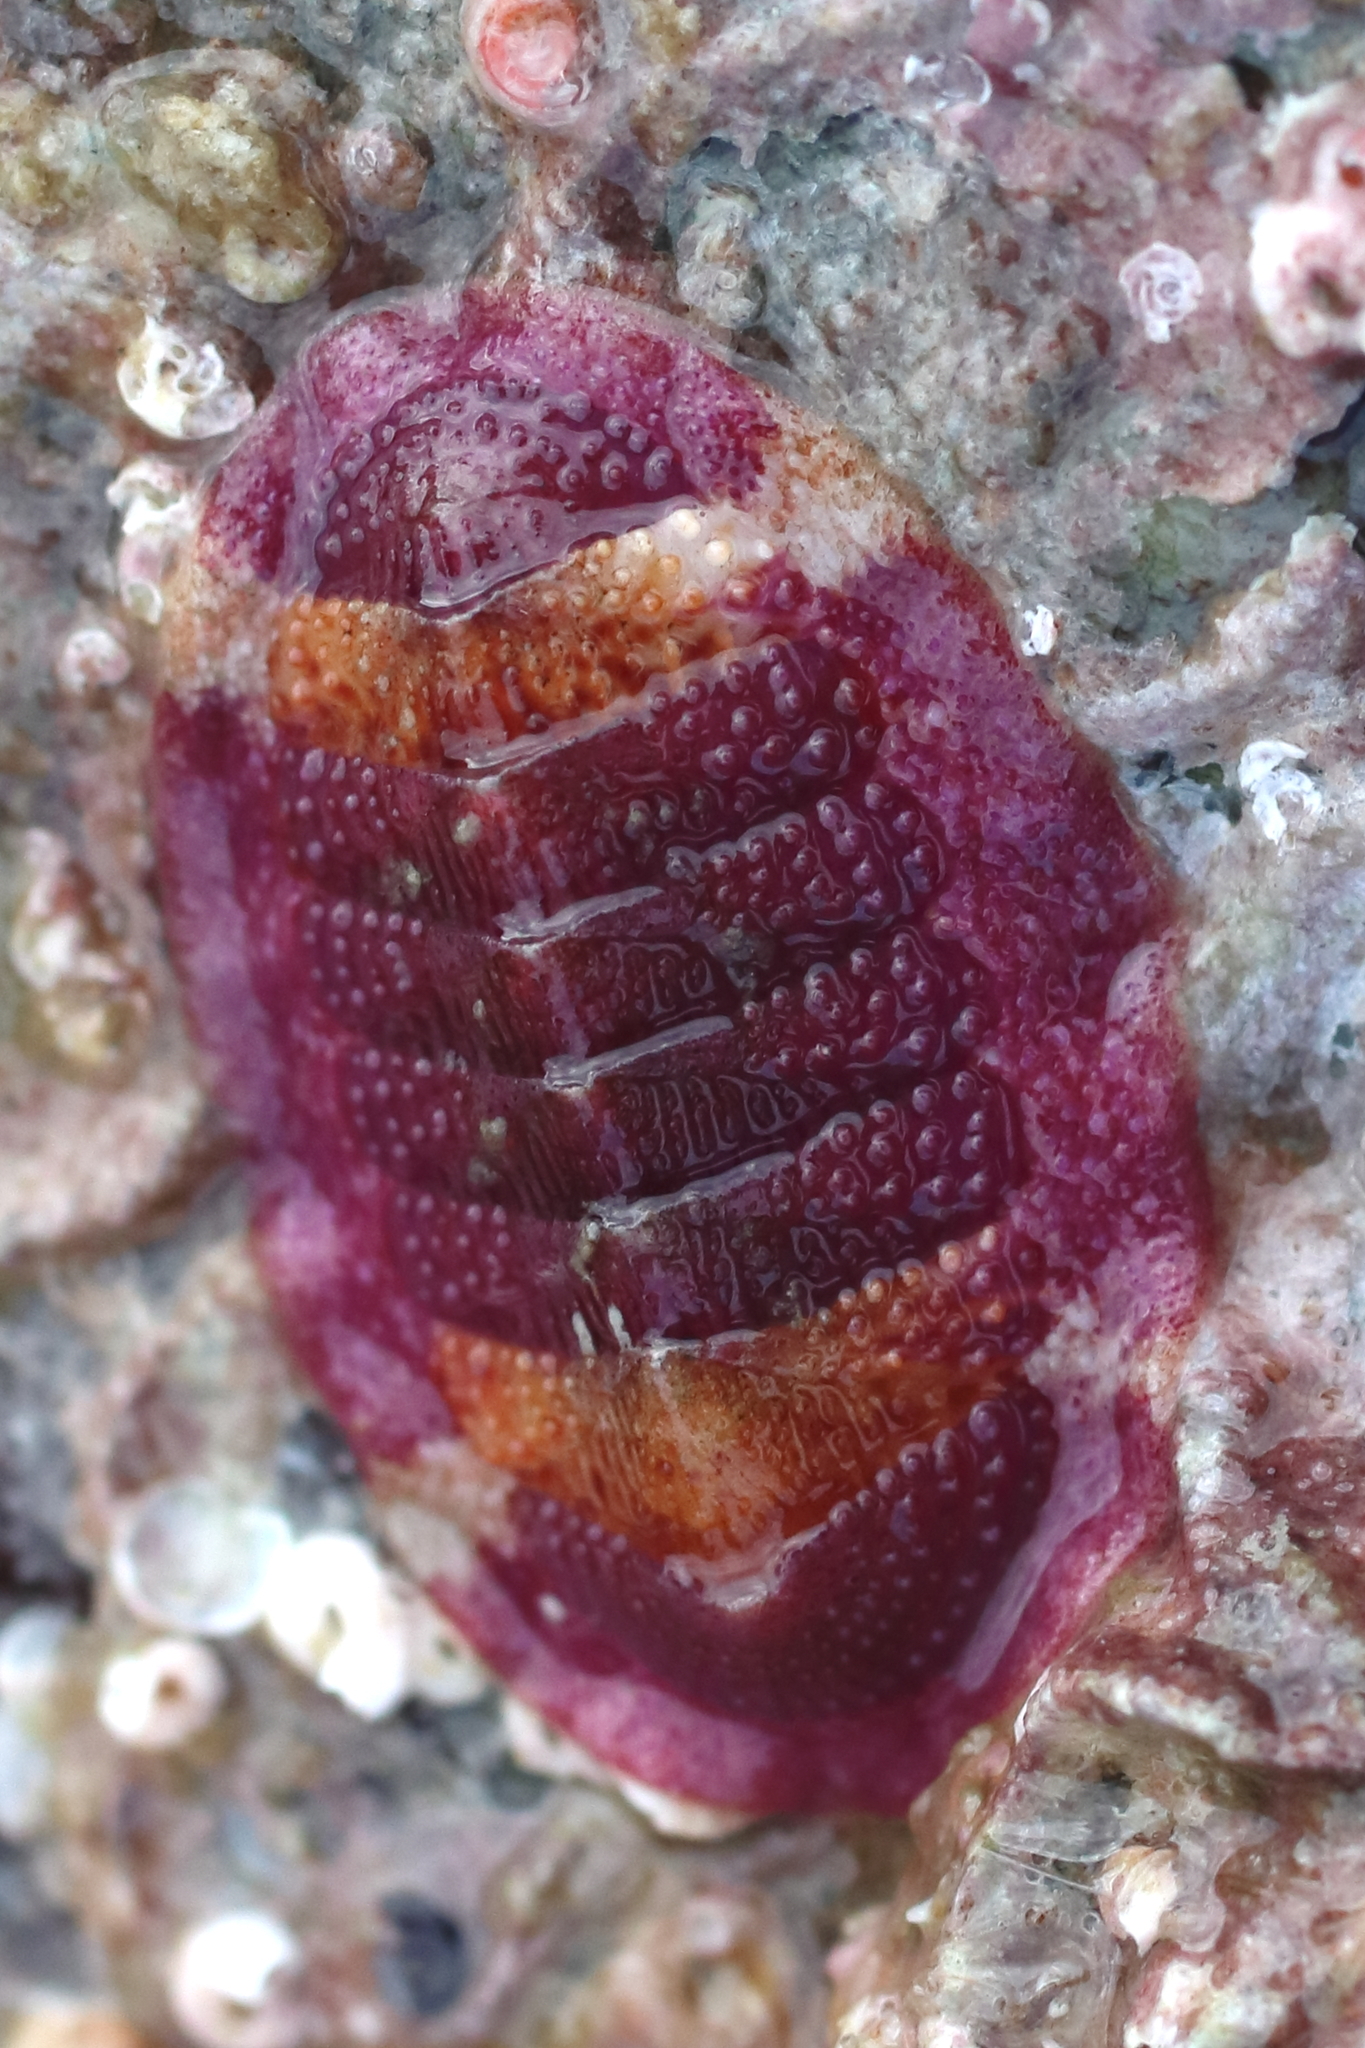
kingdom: Animalia
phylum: Mollusca
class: Polyplacophora
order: Chitonida
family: Ischnochitonidae
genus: Lepidozona
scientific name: Lepidozona mertensii
